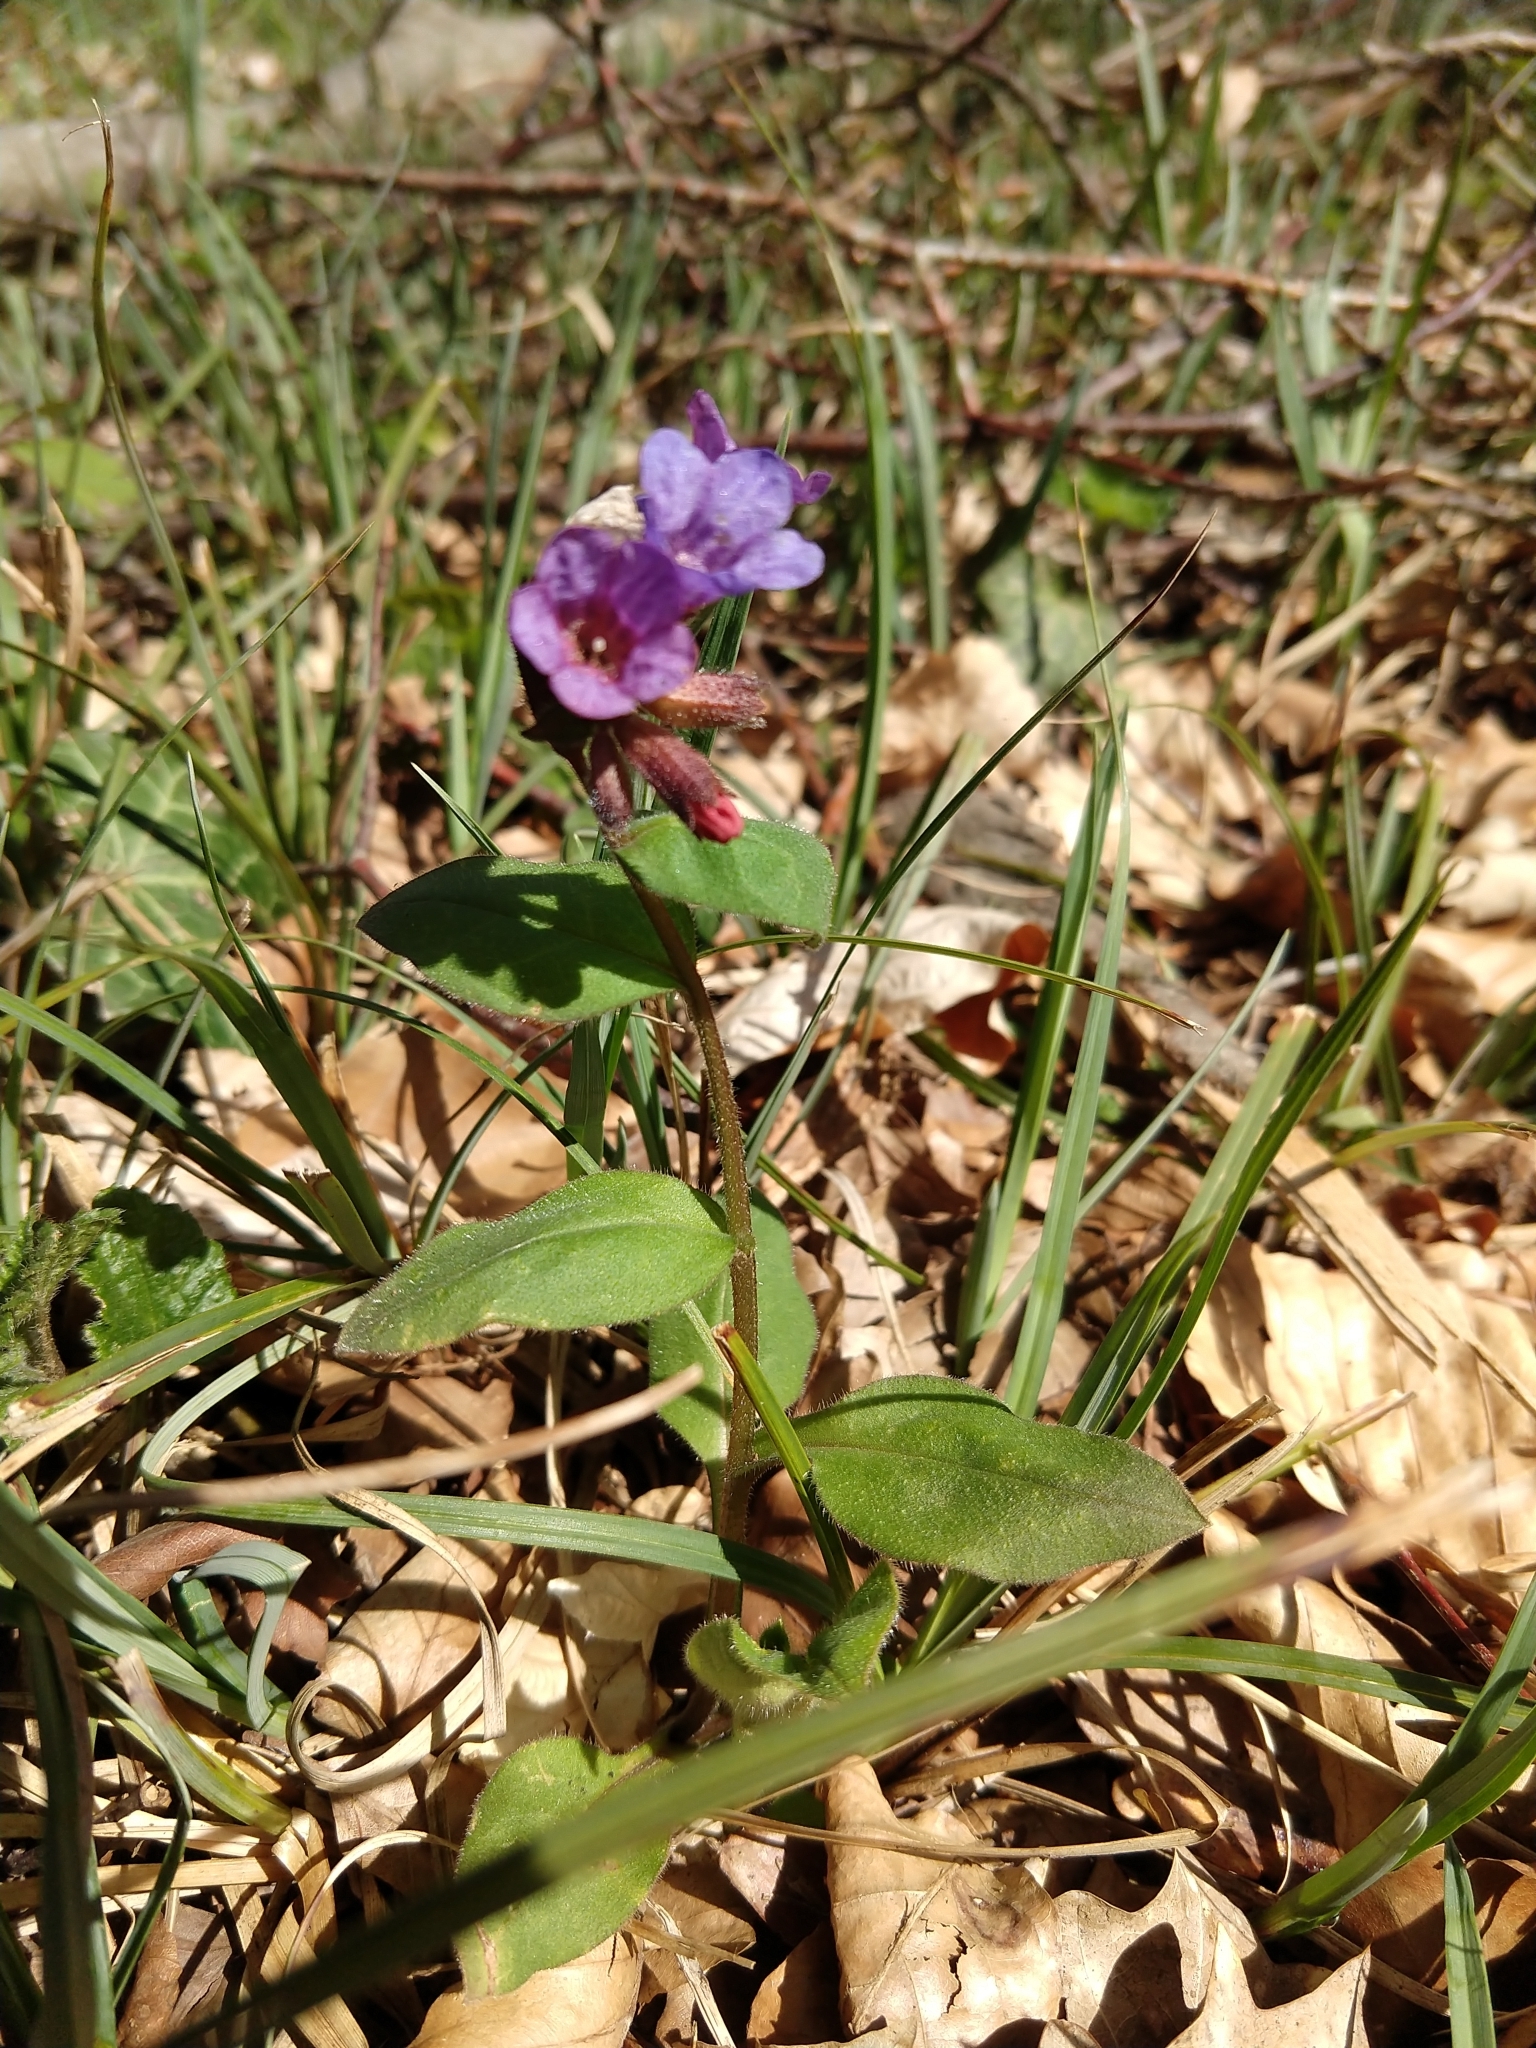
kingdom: Plantae
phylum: Tracheophyta
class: Magnoliopsida
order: Boraginales
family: Boraginaceae
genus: Pulmonaria
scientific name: Pulmonaria obscura
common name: Suffolk lungwort
